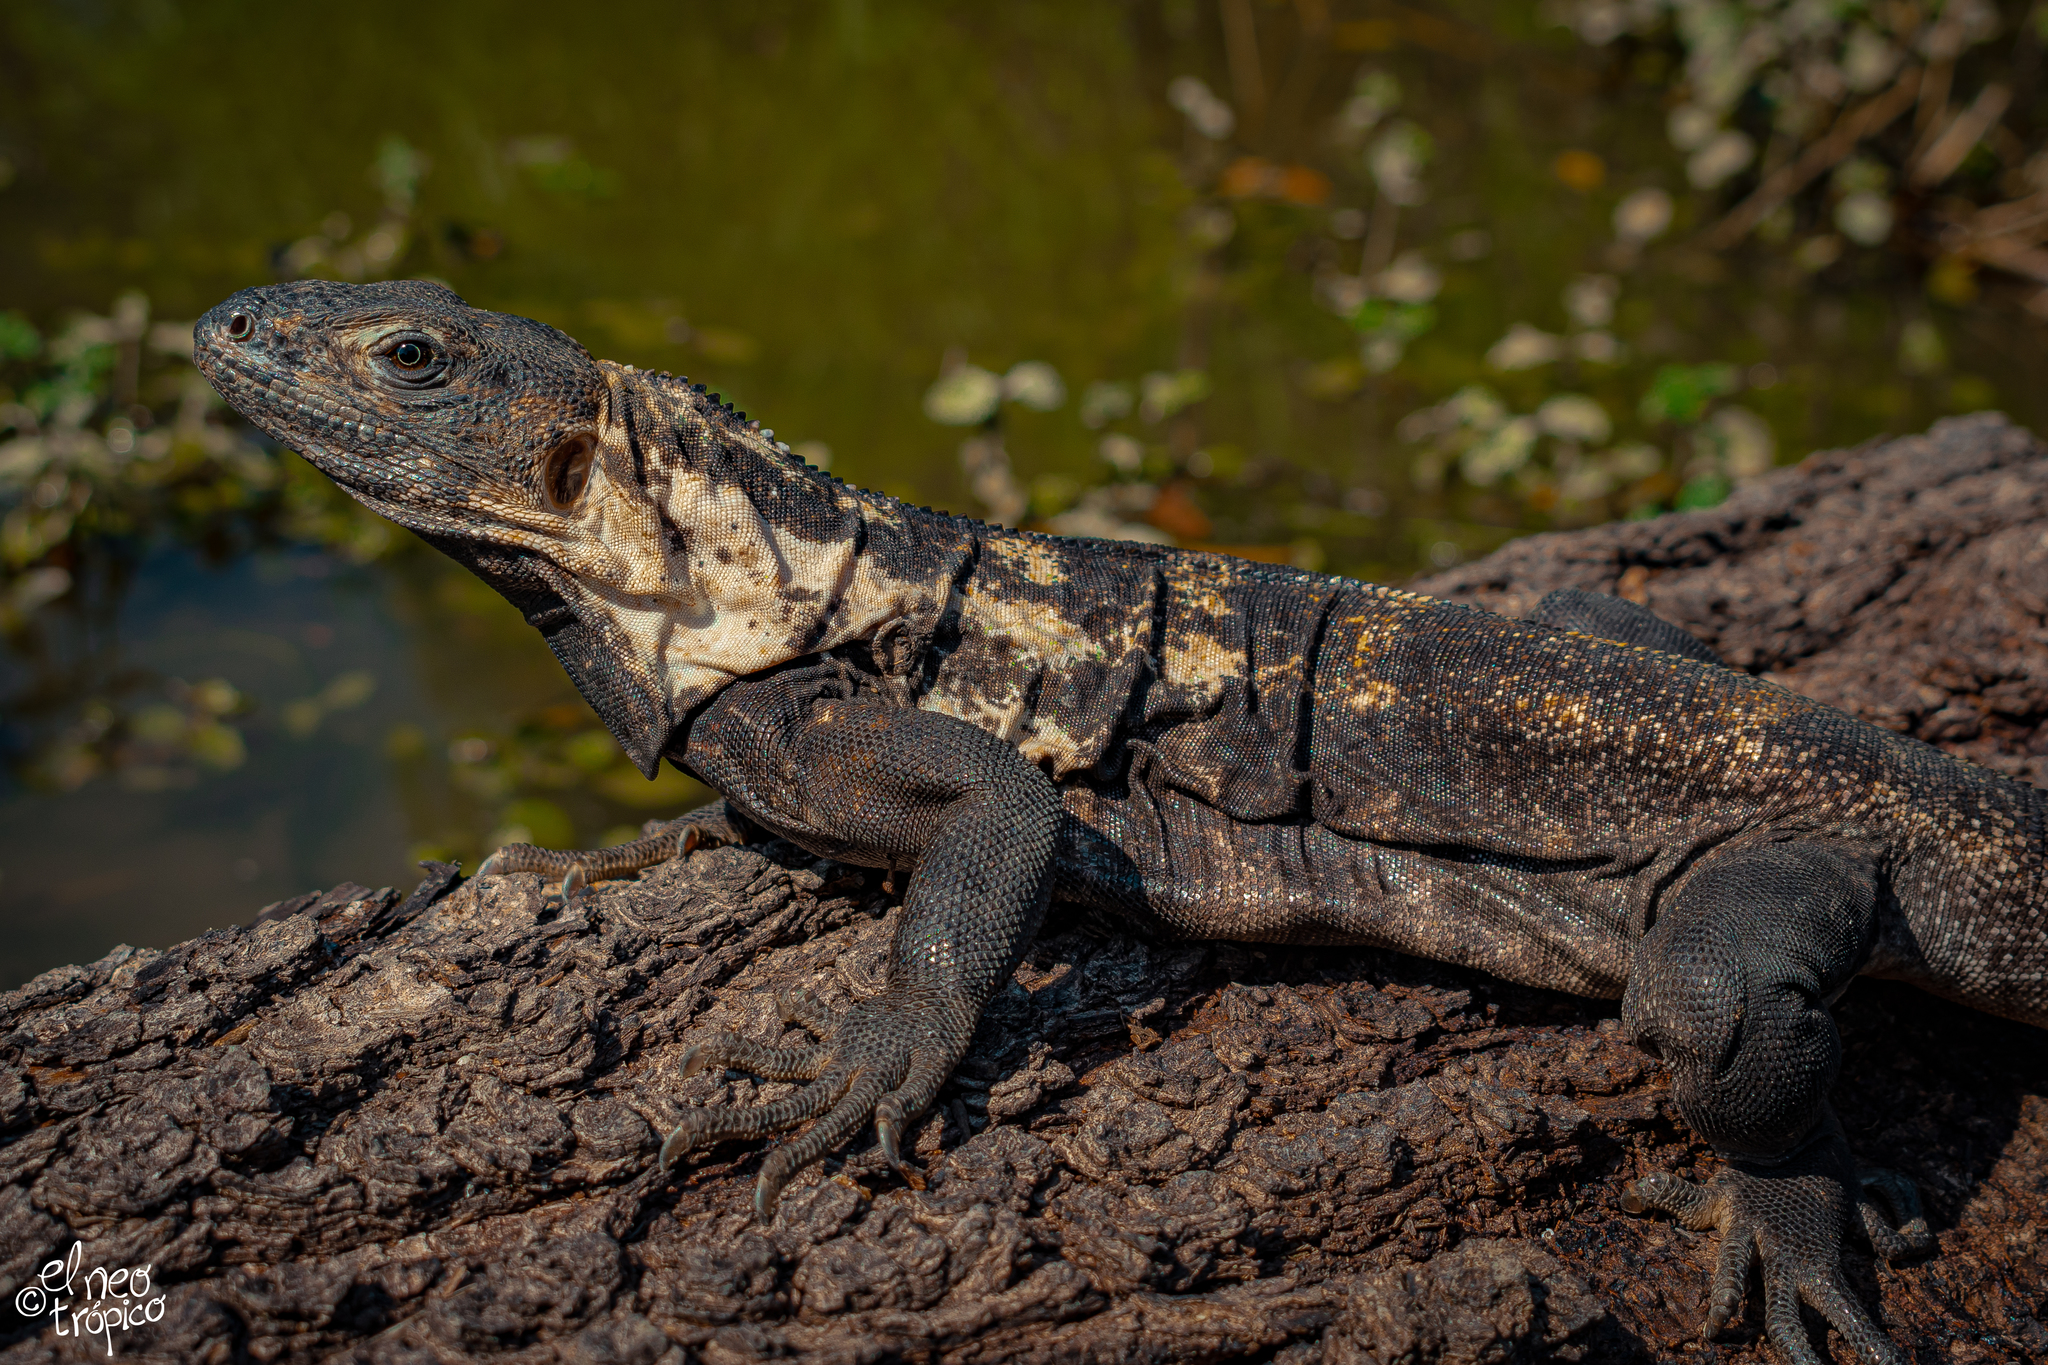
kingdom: Animalia
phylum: Chordata
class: Squamata
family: Iguanidae
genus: Ctenosaura
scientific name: Ctenosaura pectinata
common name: Guerreran spiny-tailed iguana
